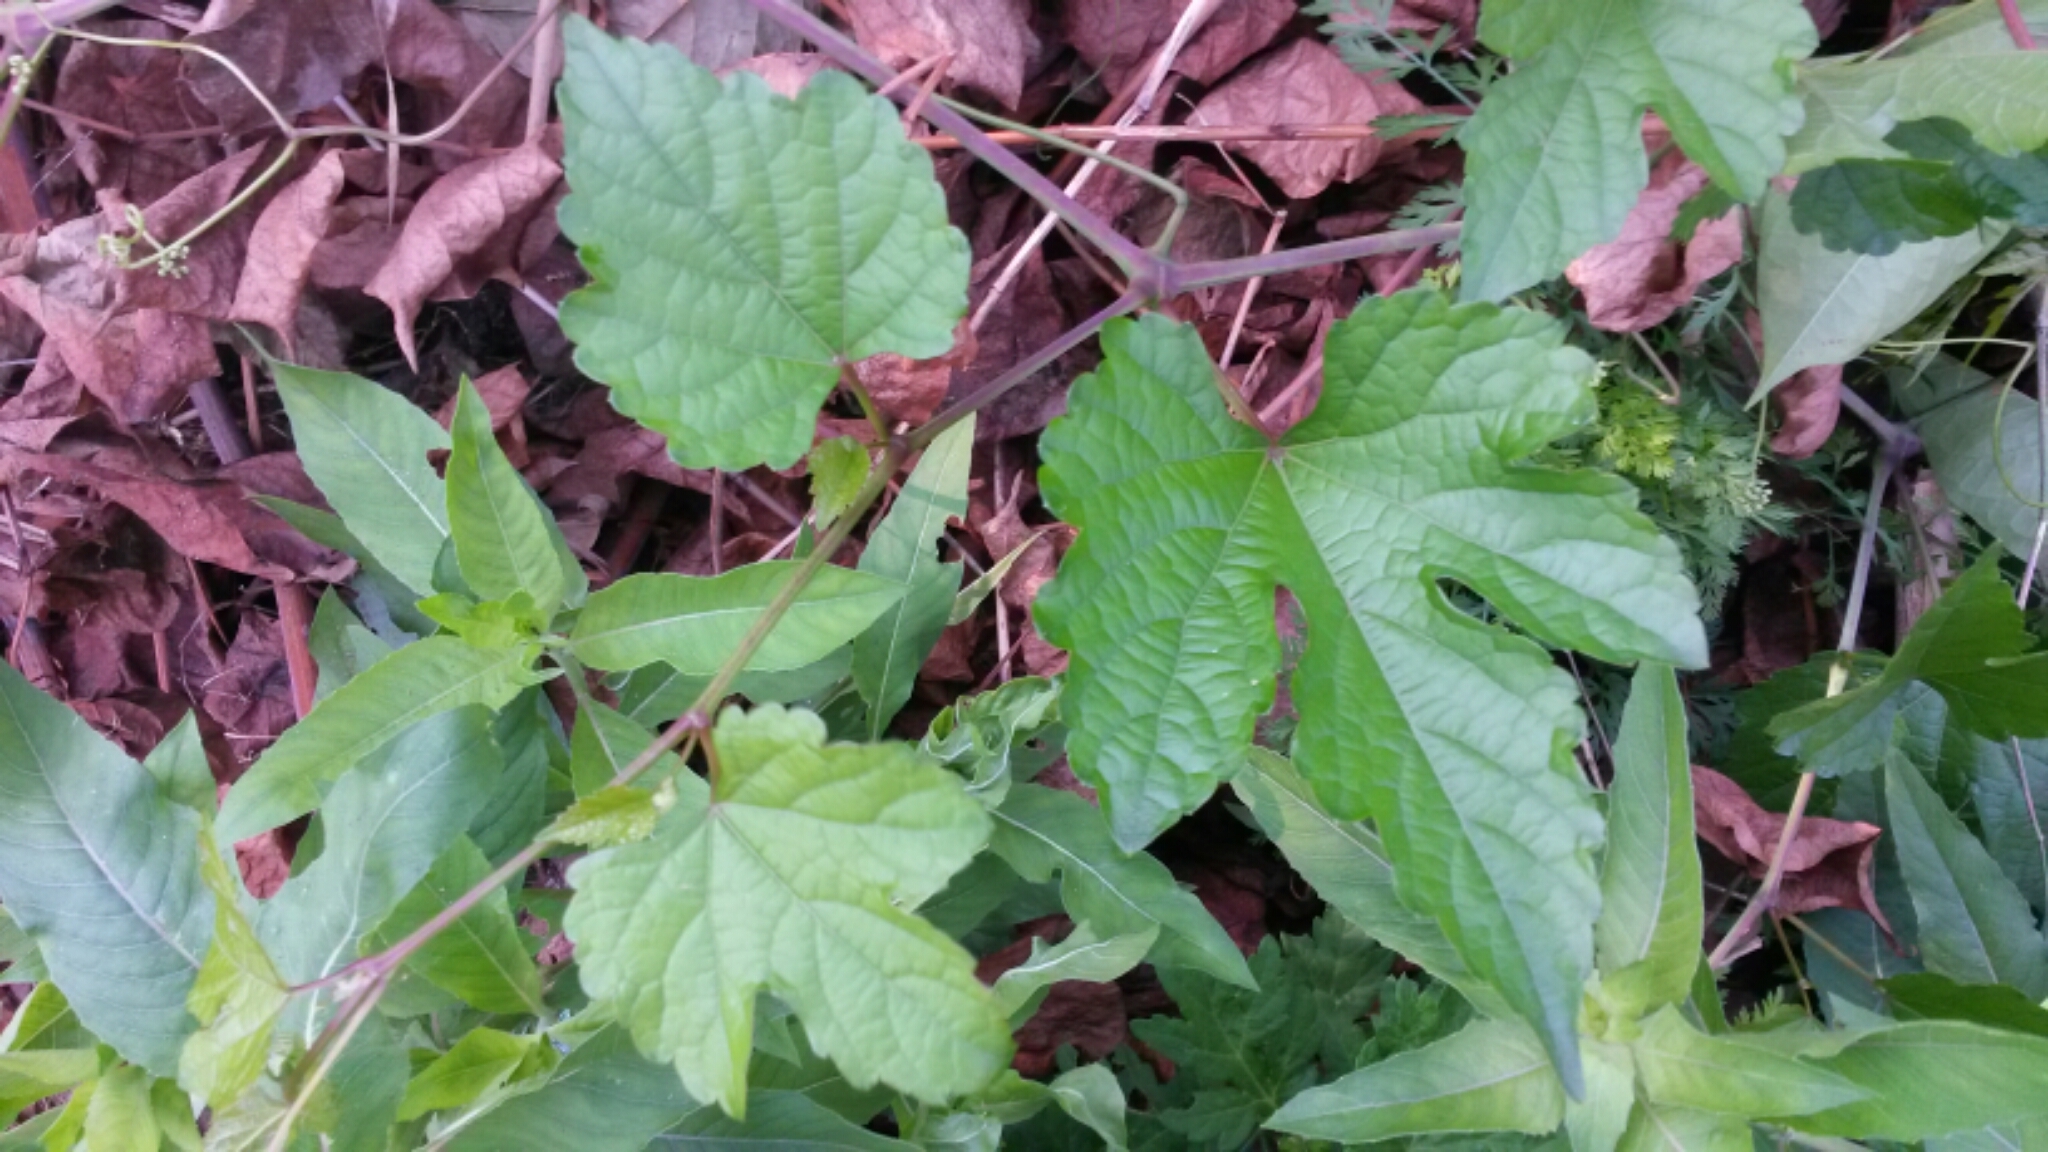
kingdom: Plantae
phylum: Tracheophyta
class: Magnoliopsida
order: Vitales
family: Vitaceae
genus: Ampelopsis
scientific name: Ampelopsis glandulosa
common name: Amur peppervine
